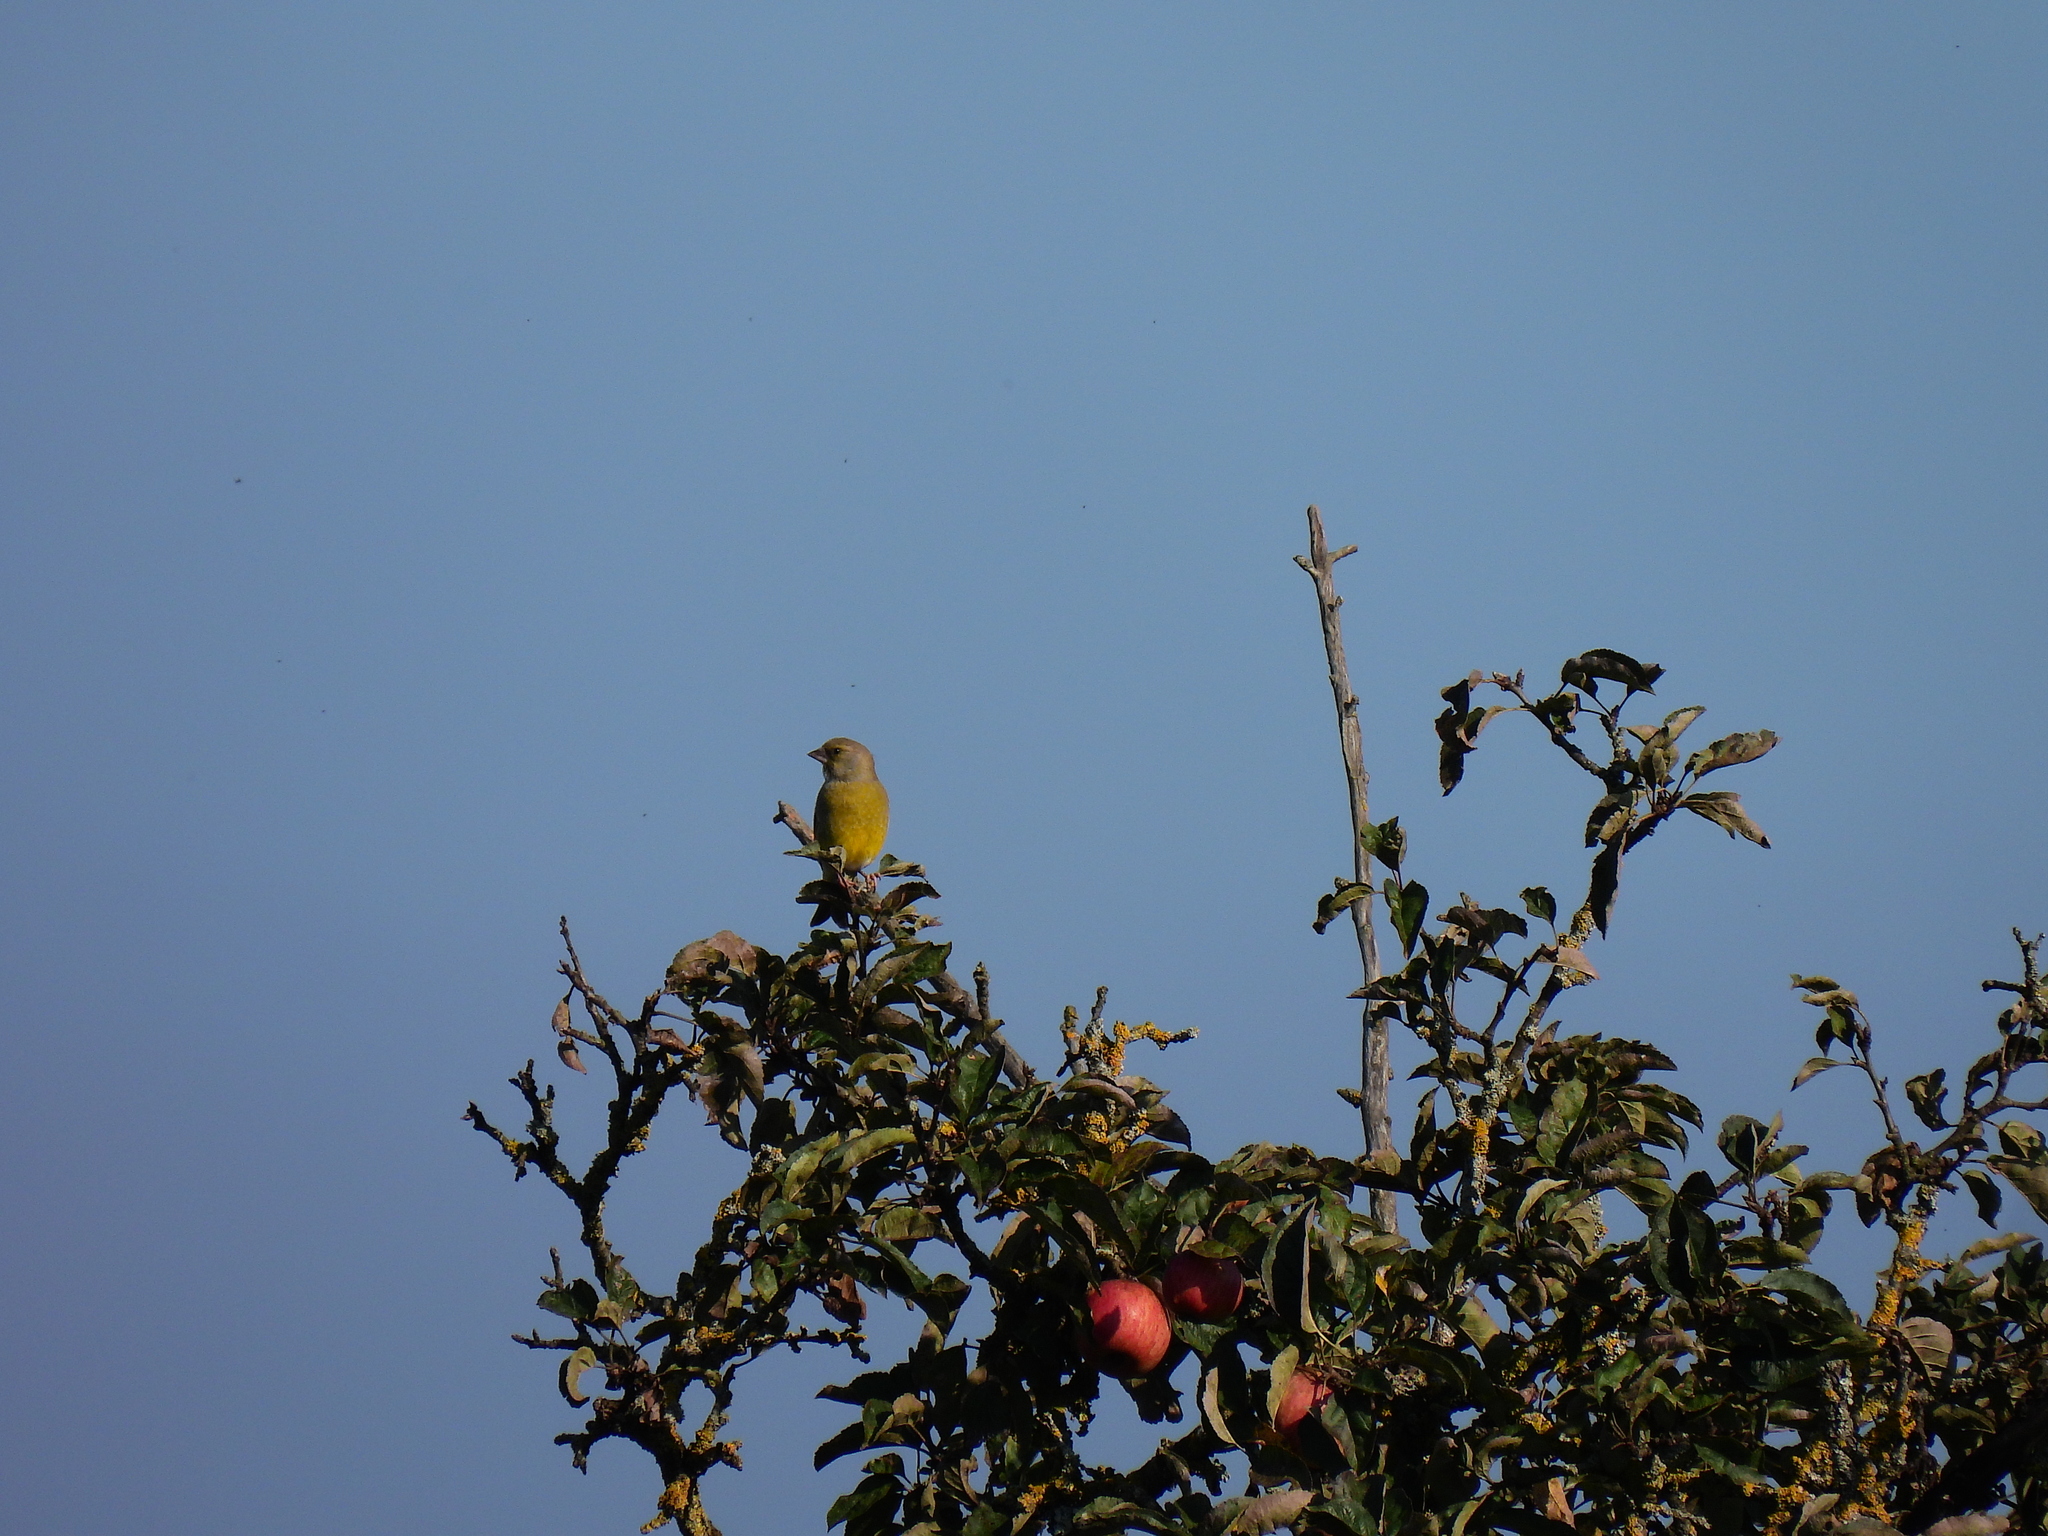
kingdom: Plantae
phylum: Tracheophyta
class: Liliopsida
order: Poales
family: Poaceae
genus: Chloris
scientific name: Chloris chloris
